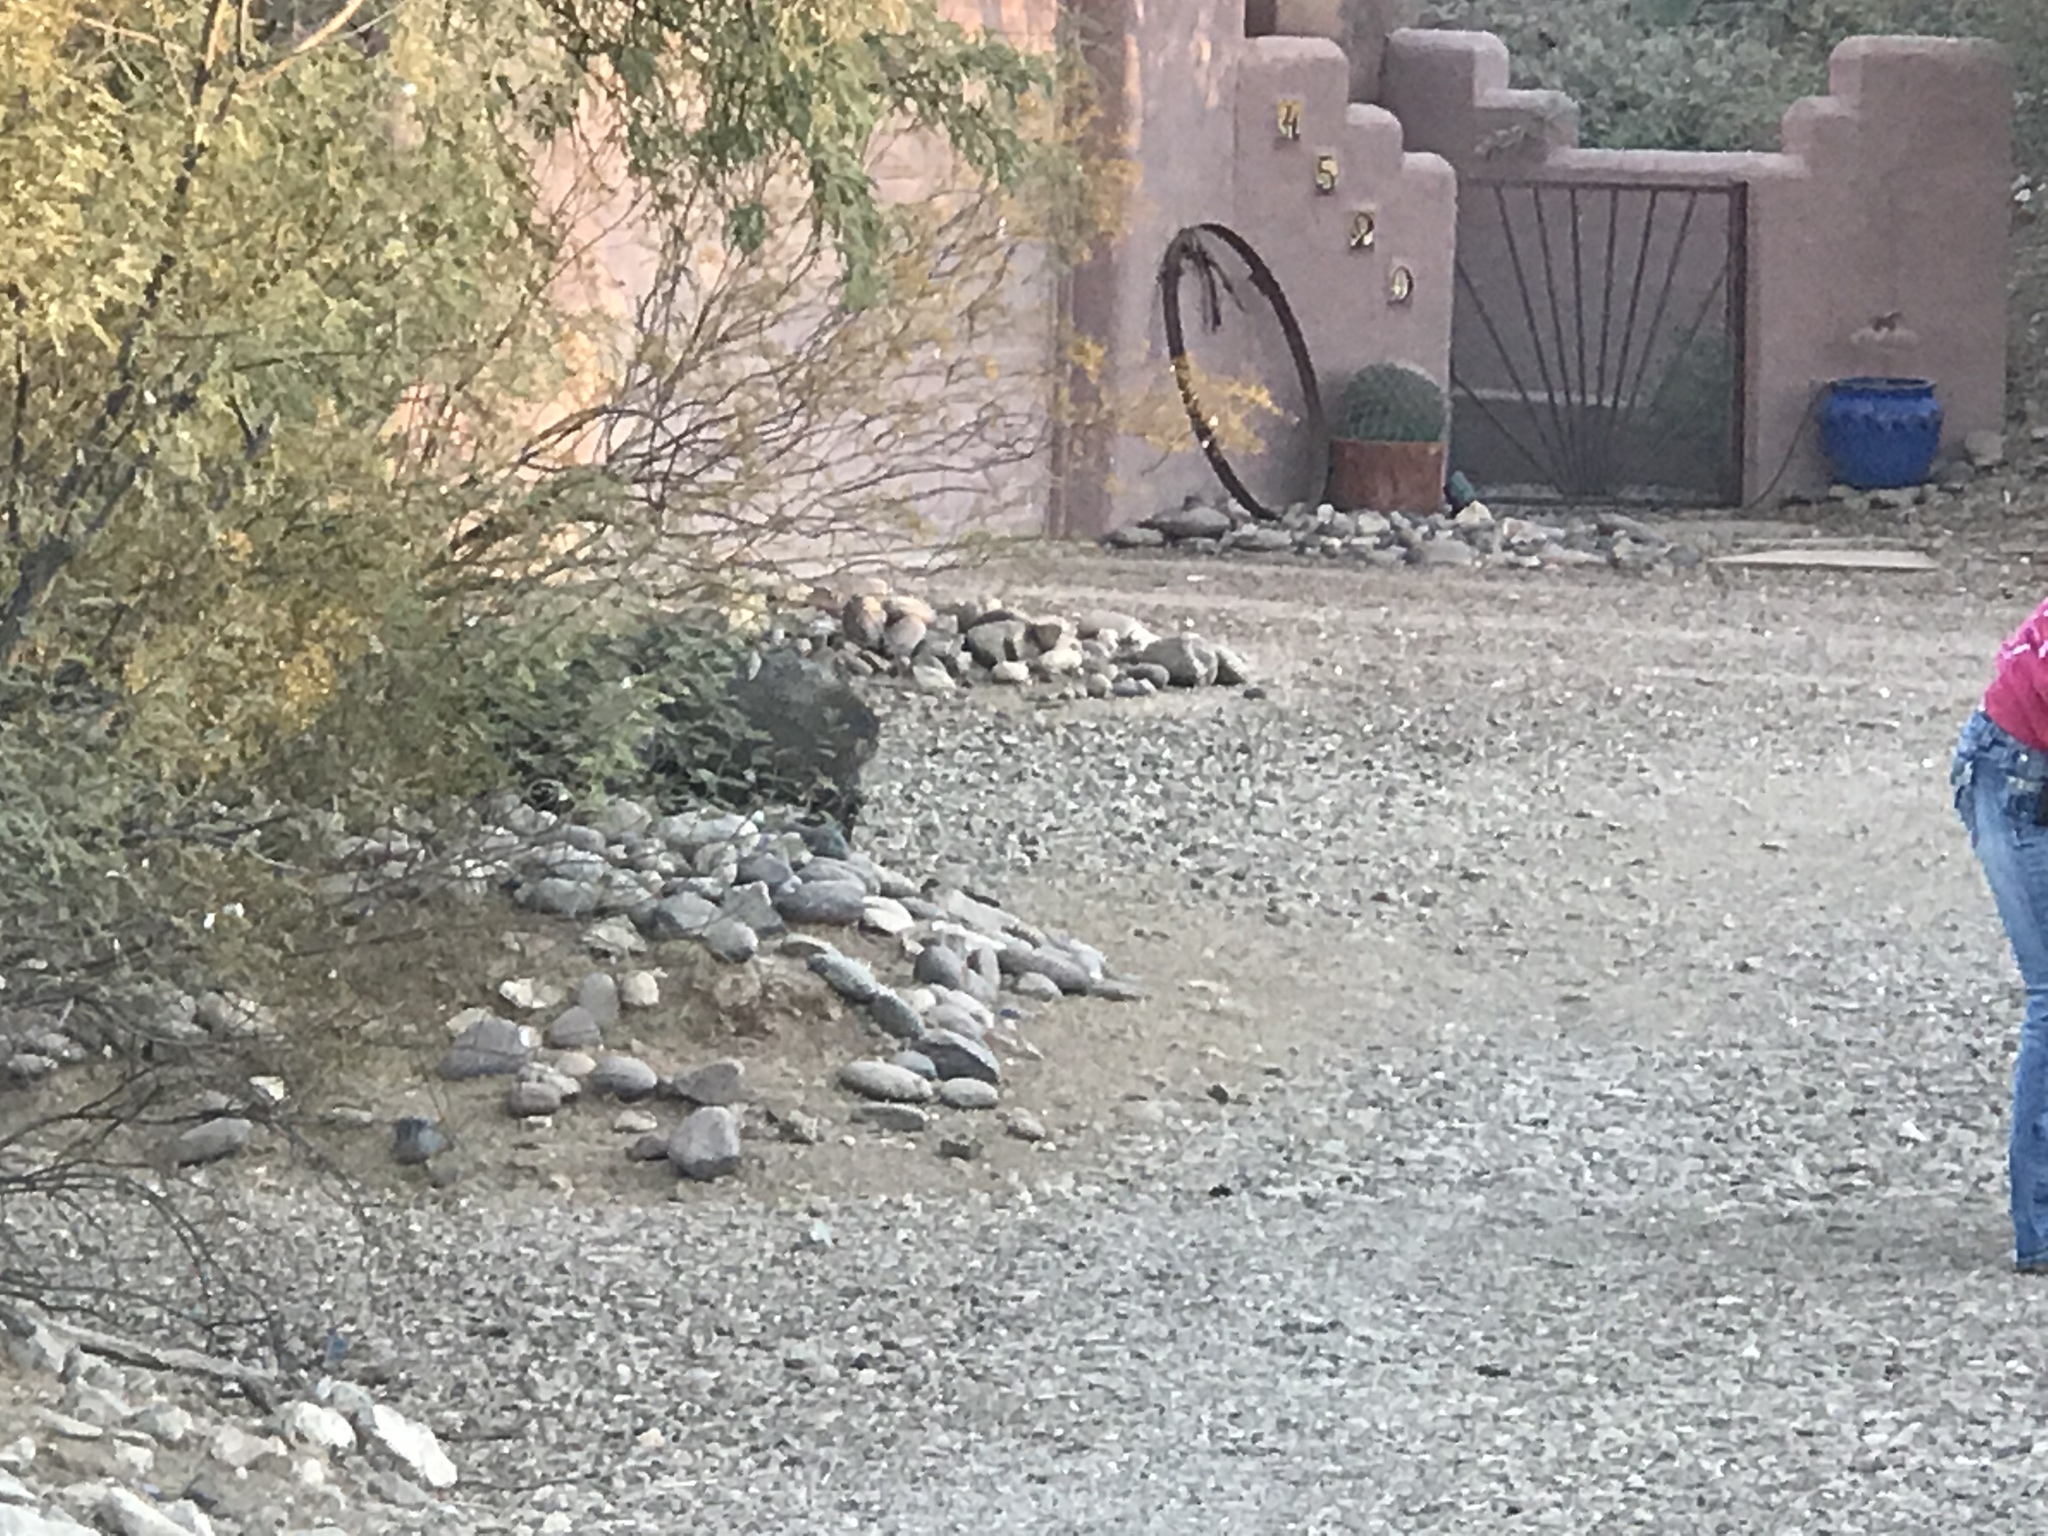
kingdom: Animalia
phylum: Chordata
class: Mammalia
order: Artiodactyla
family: Tayassuidae
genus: Pecari
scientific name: Pecari tajacu
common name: Collared peccary
